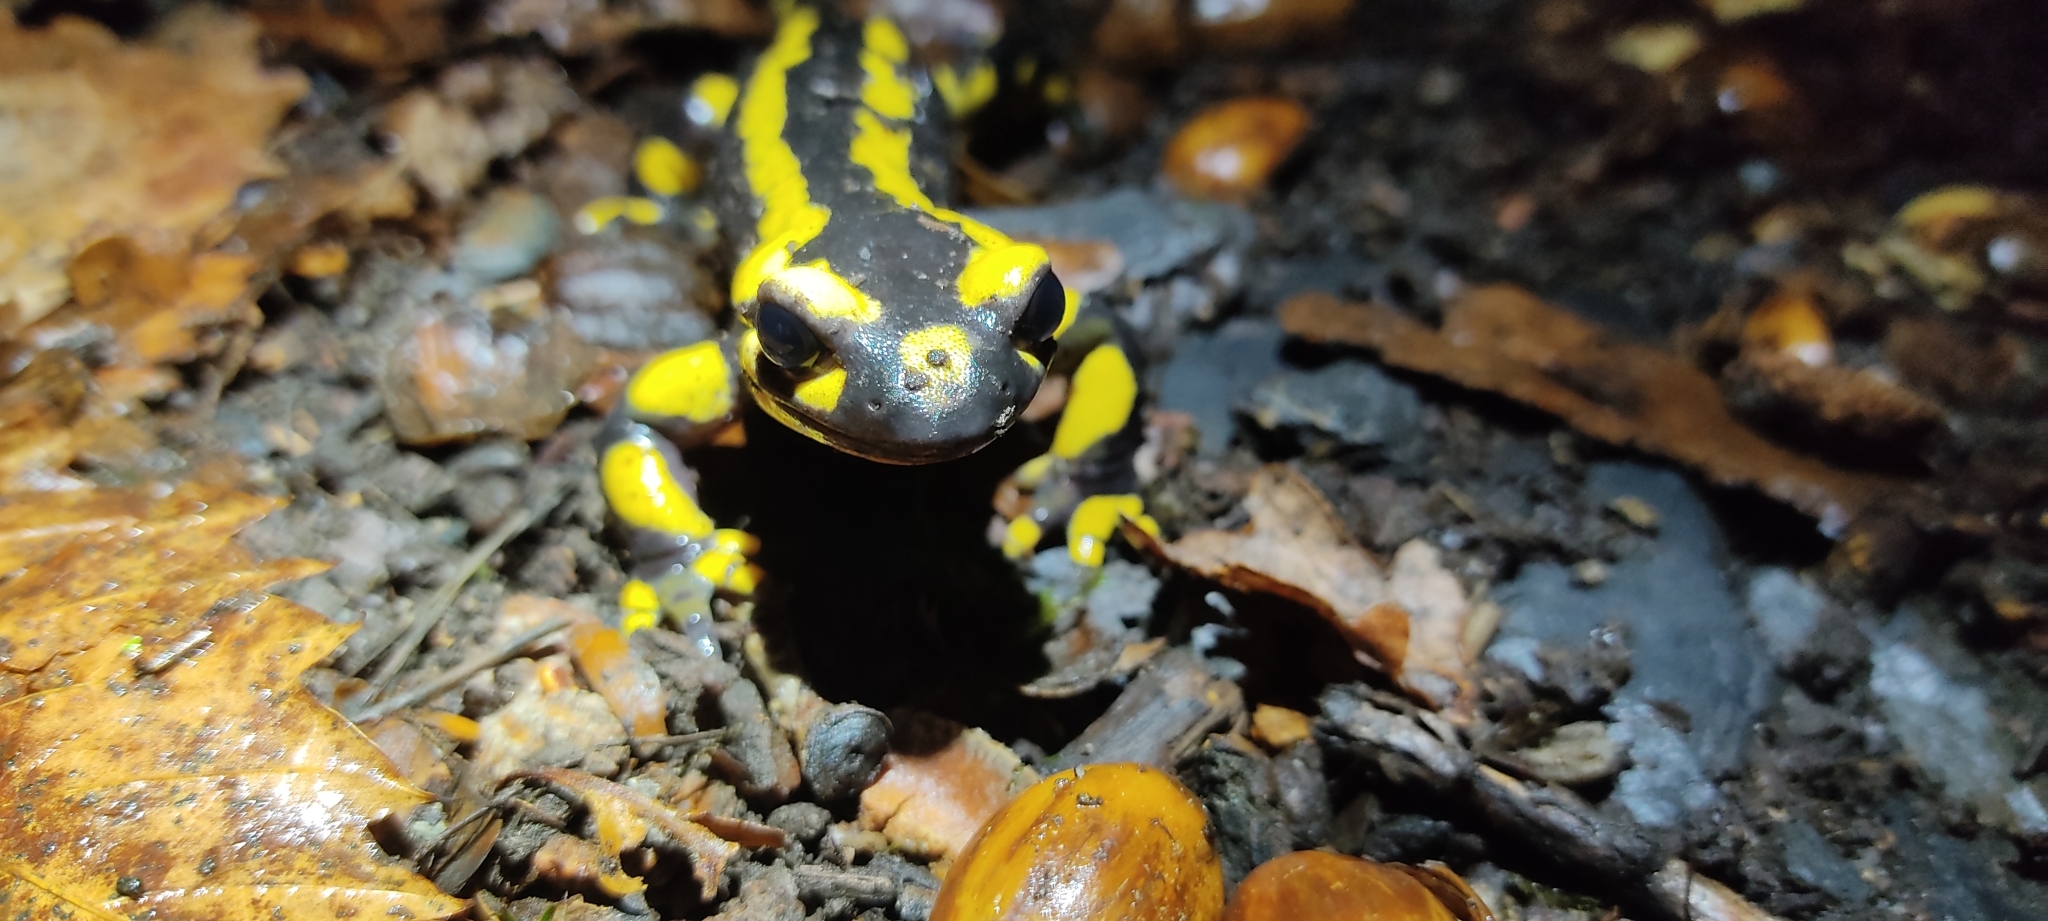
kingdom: Animalia
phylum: Chordata
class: Amphibia
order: Caudata
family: Salamandridae
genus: Salamandra
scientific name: Salamandra salamandra
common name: Fire salamander
